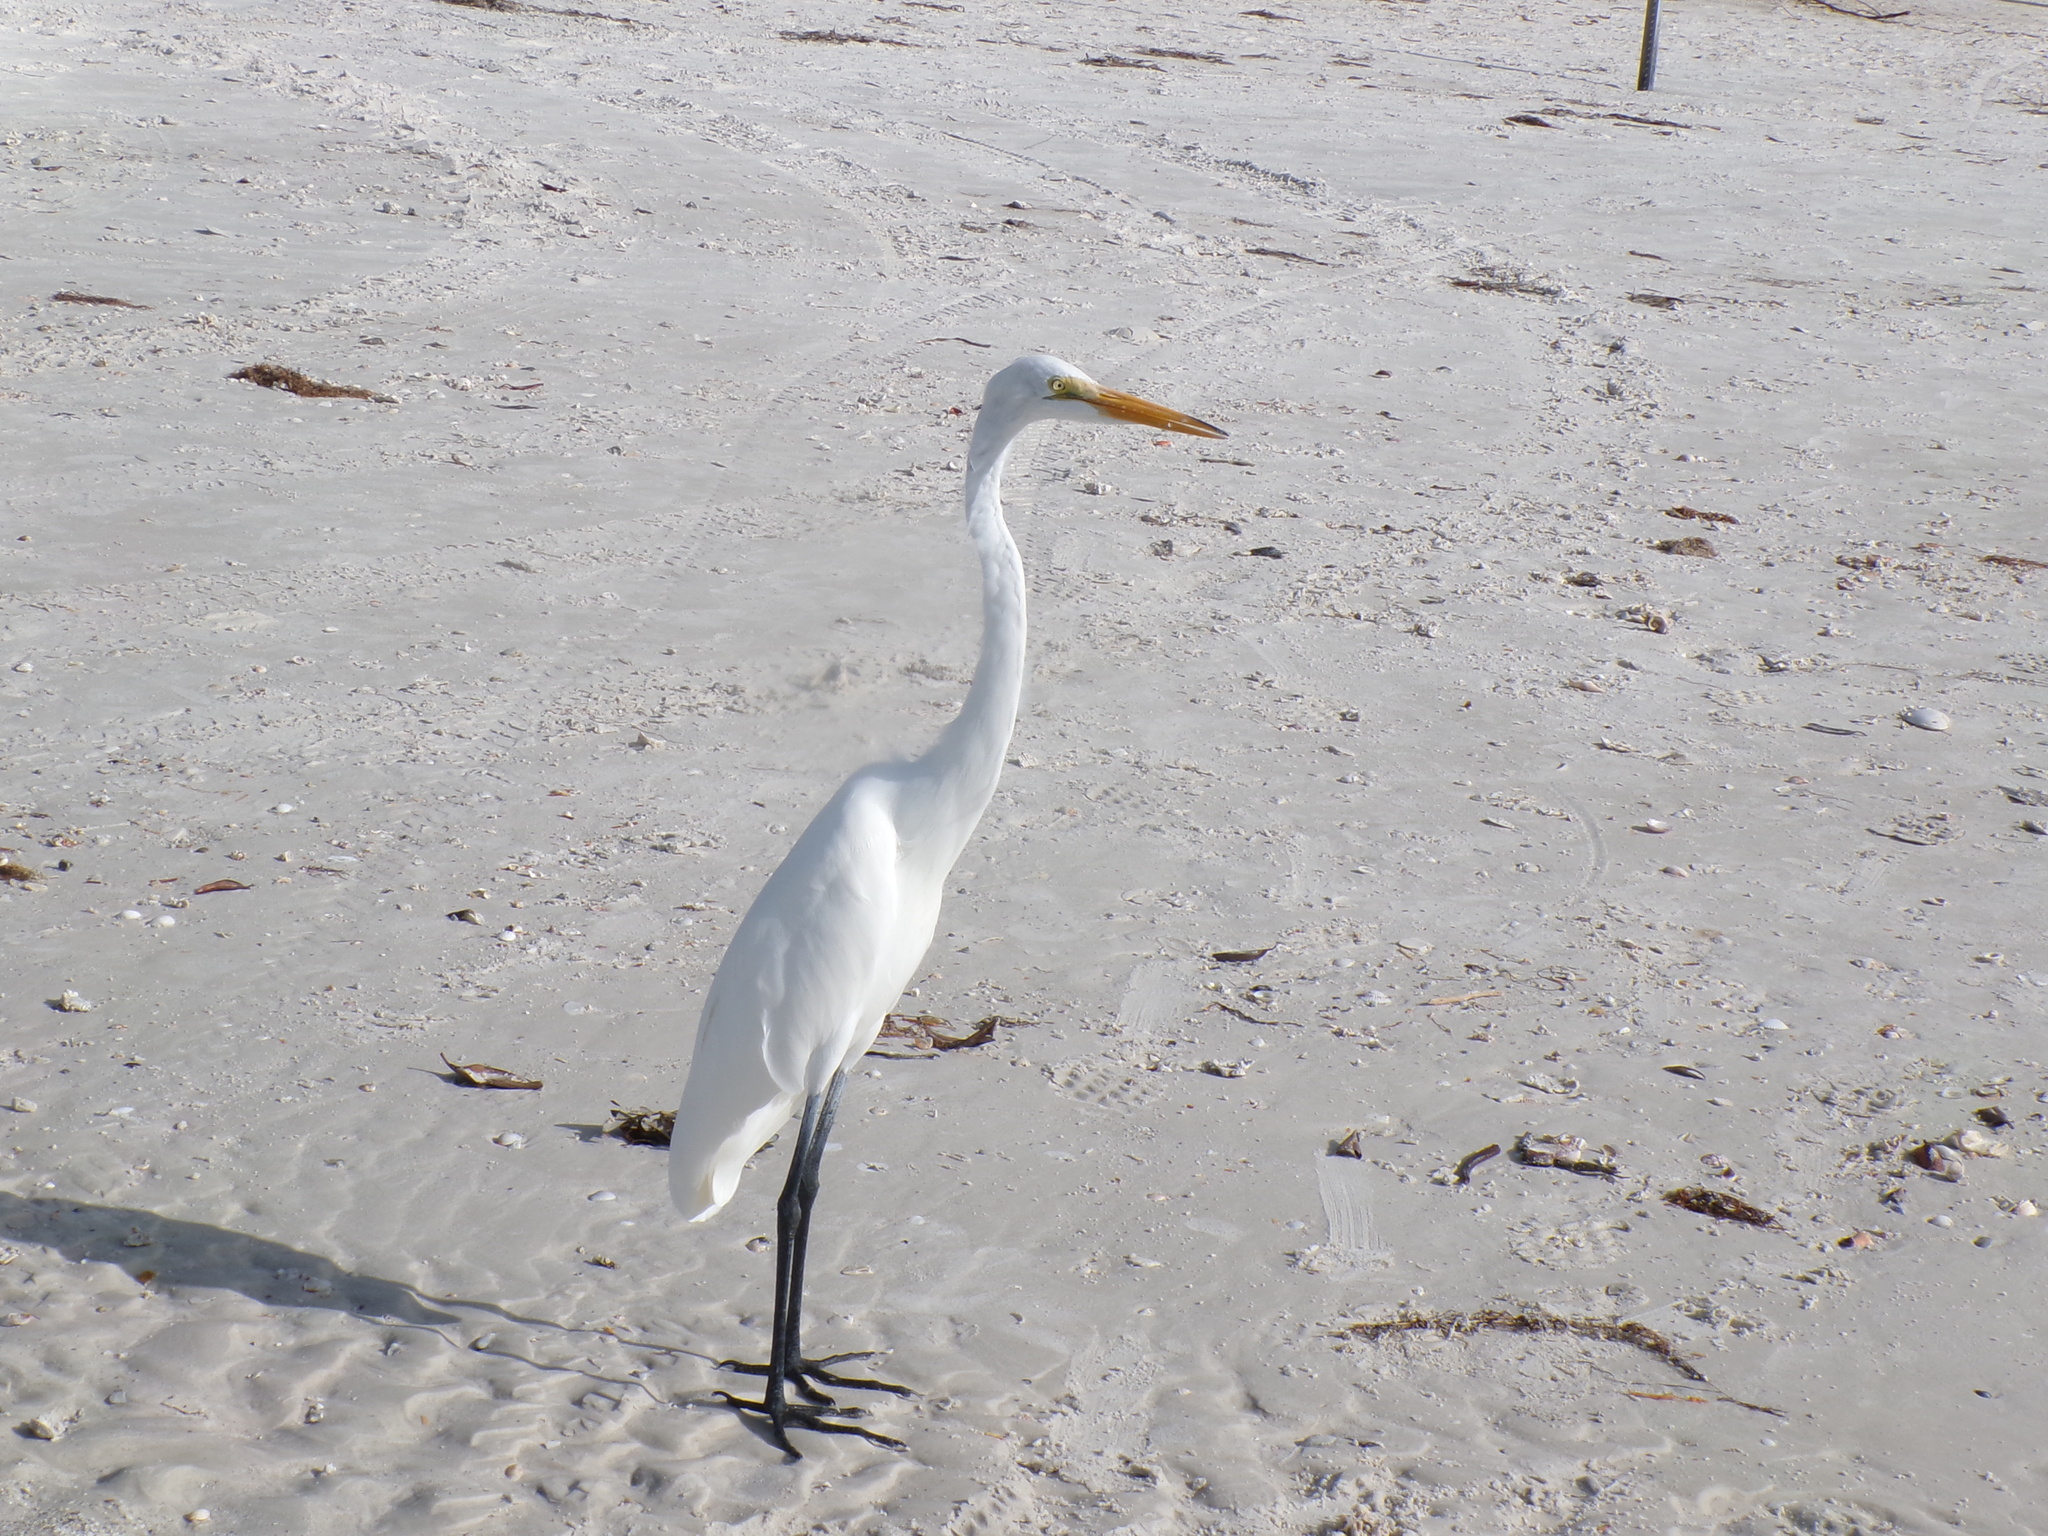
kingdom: Animalia
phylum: Chordata
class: Aves
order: Pelecaniformes
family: Ardeidae
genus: Ardea
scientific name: Ardea alba
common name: Great egret
